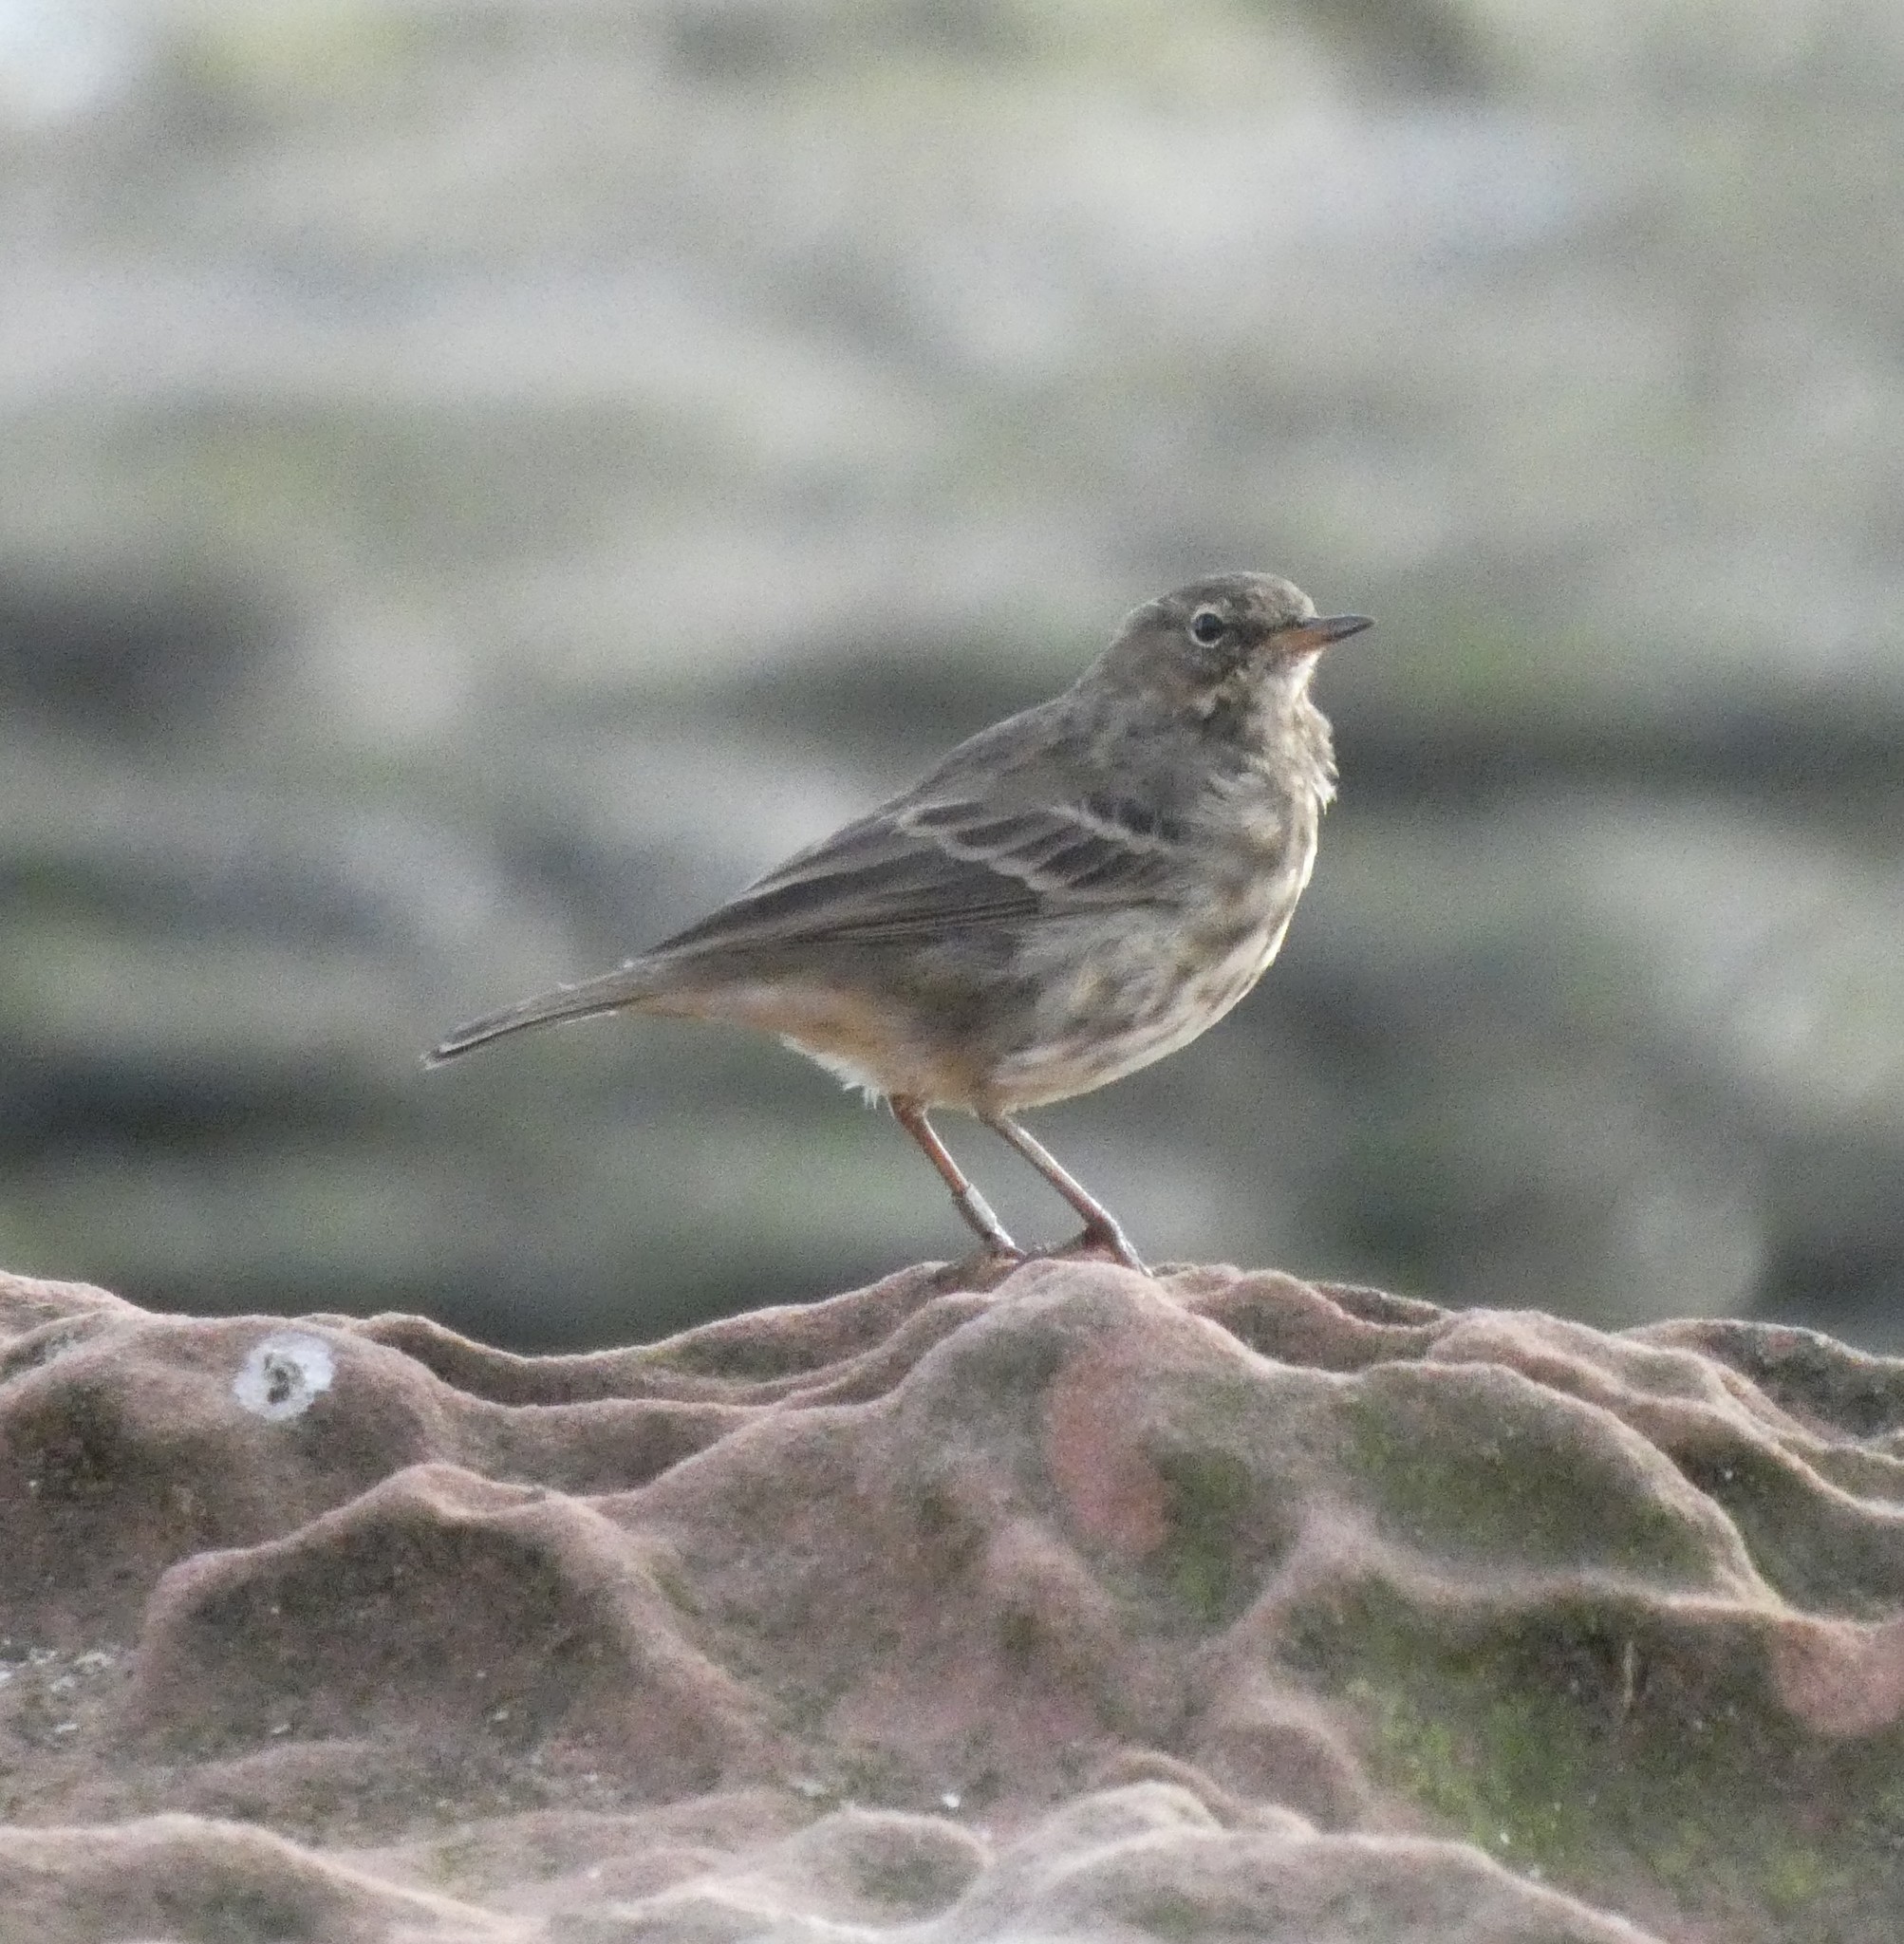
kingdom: Animalia
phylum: Chordata
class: Aves
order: Passeriformes
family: Motacillidae
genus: Anthus
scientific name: Anthus petrosus
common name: Eurasian rock pipit
